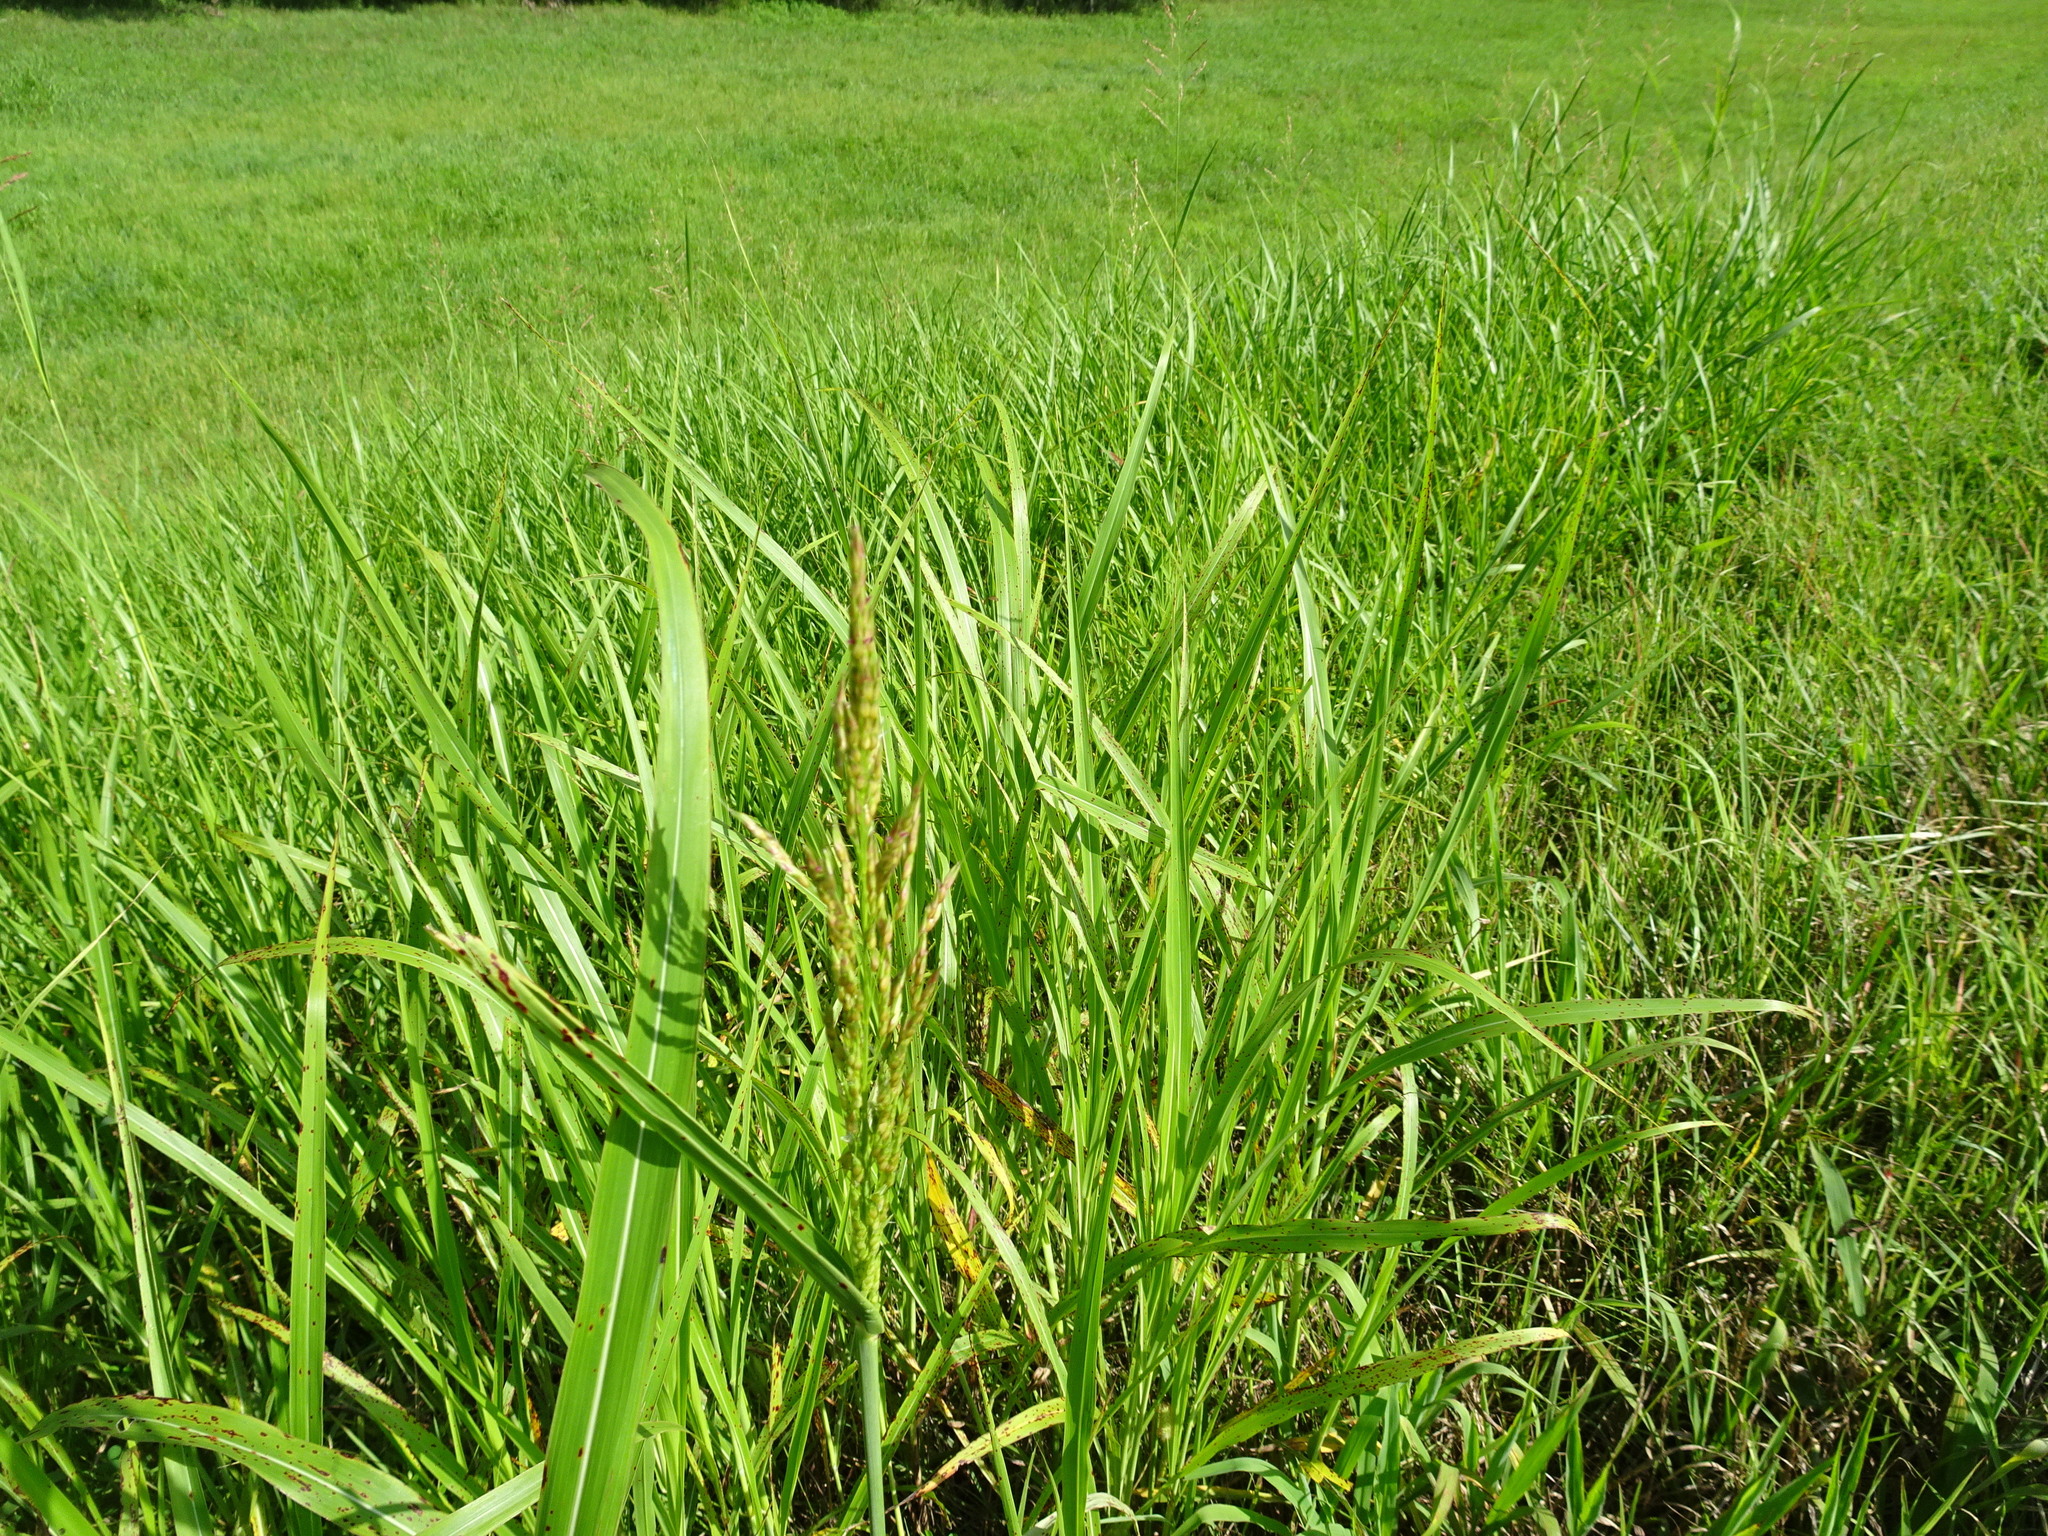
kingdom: Plantae
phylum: Tracheophyta
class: Liliopsida
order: Poales
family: Poaceae
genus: Sorghum
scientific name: Sorghum halepense
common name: Johnson-grass
